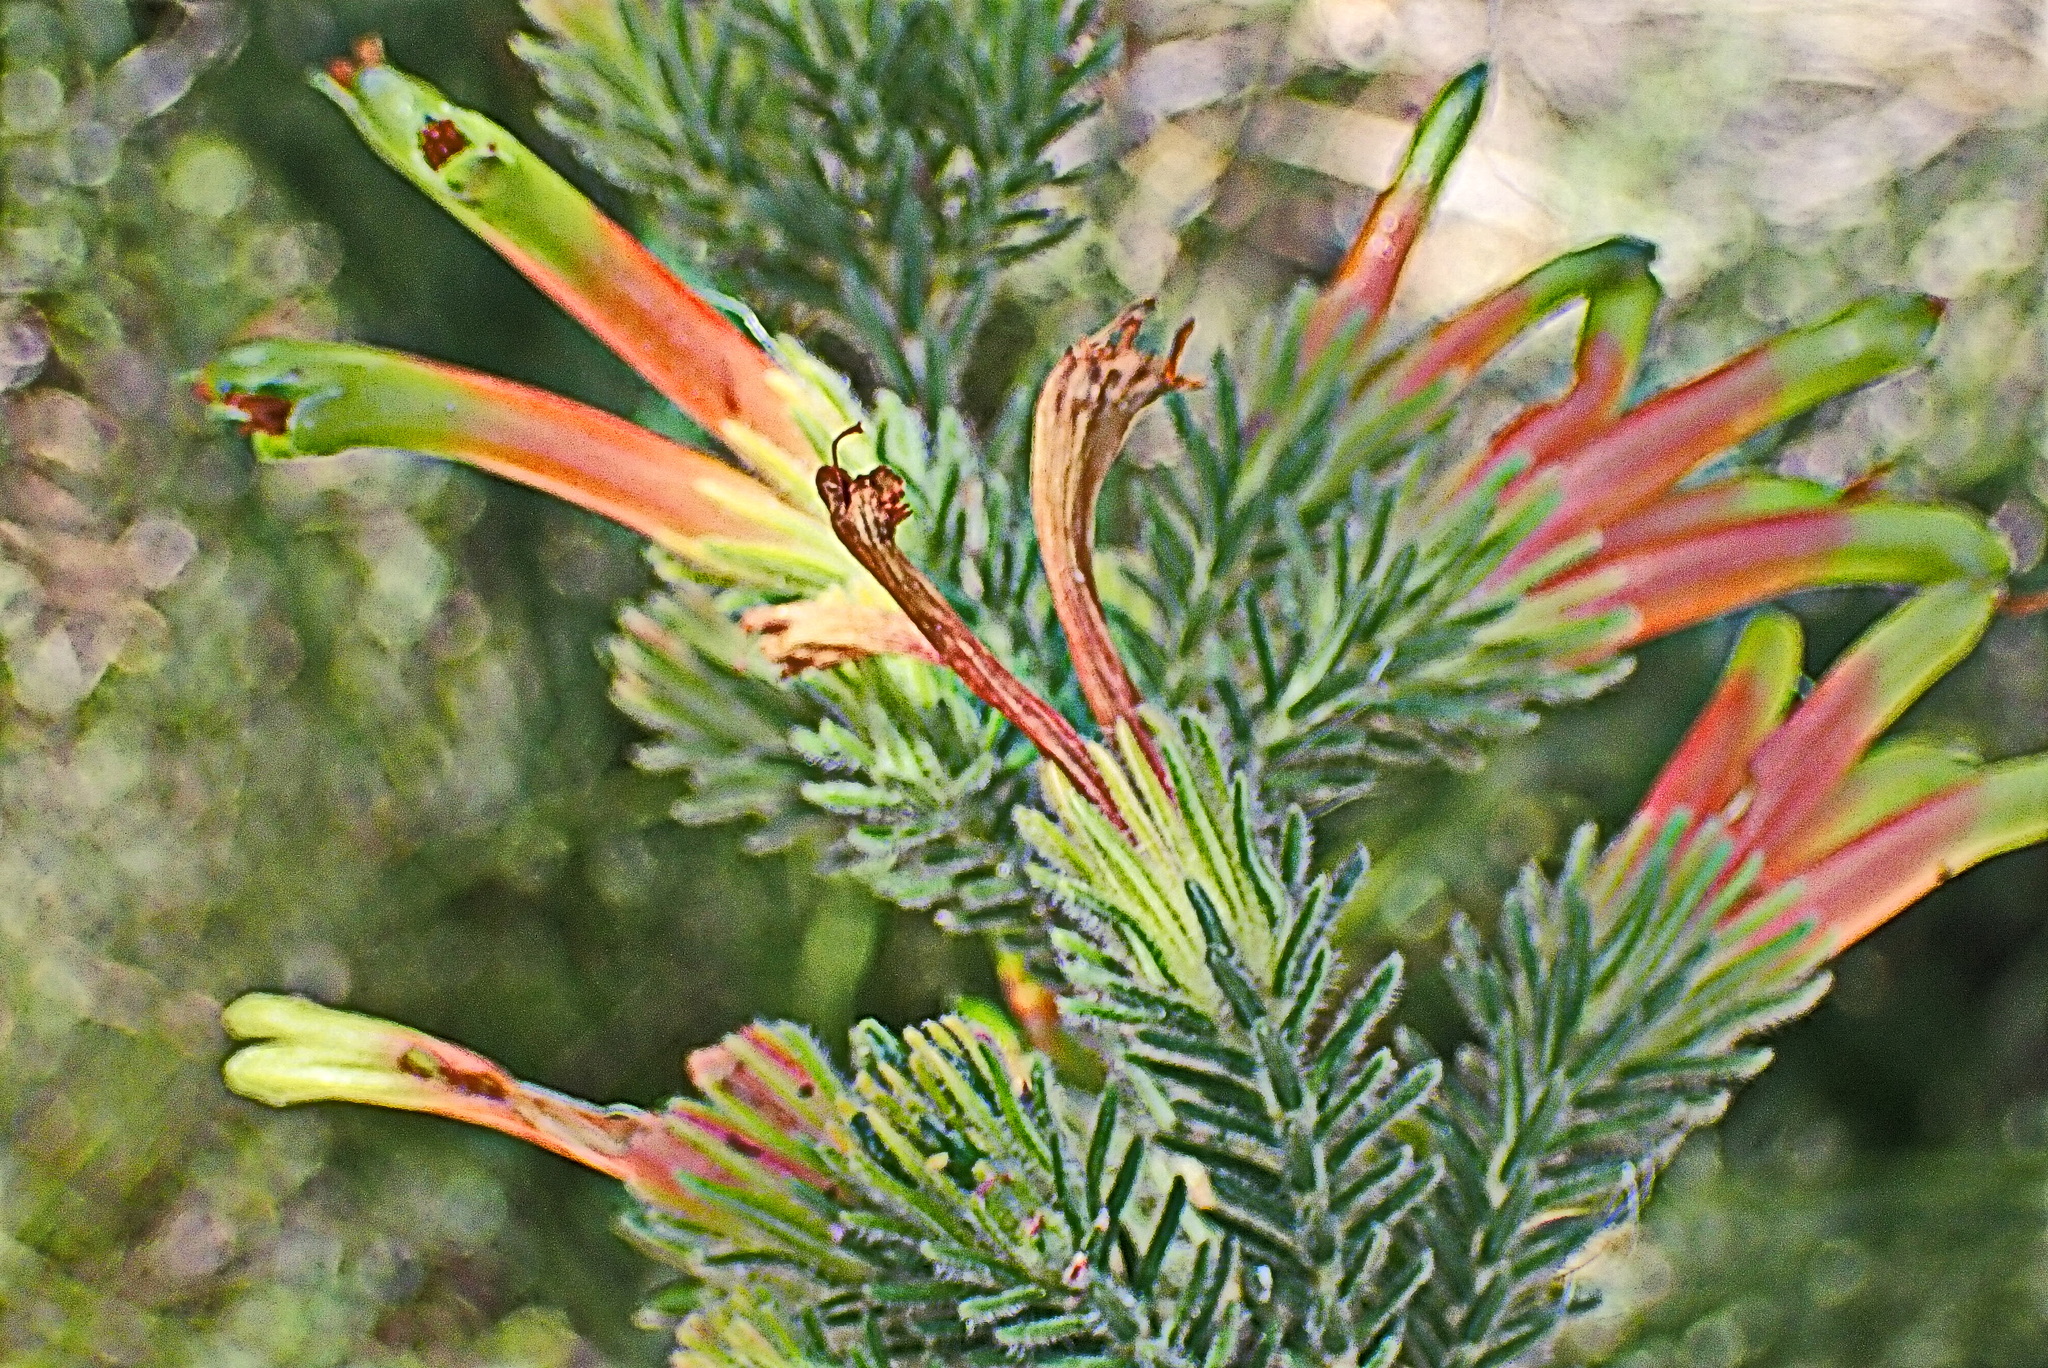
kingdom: Plantae
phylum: Tracheophyta
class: Magnoliopsida
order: Ericales
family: Ericaceae
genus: Erica
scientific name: Erica unicolor
